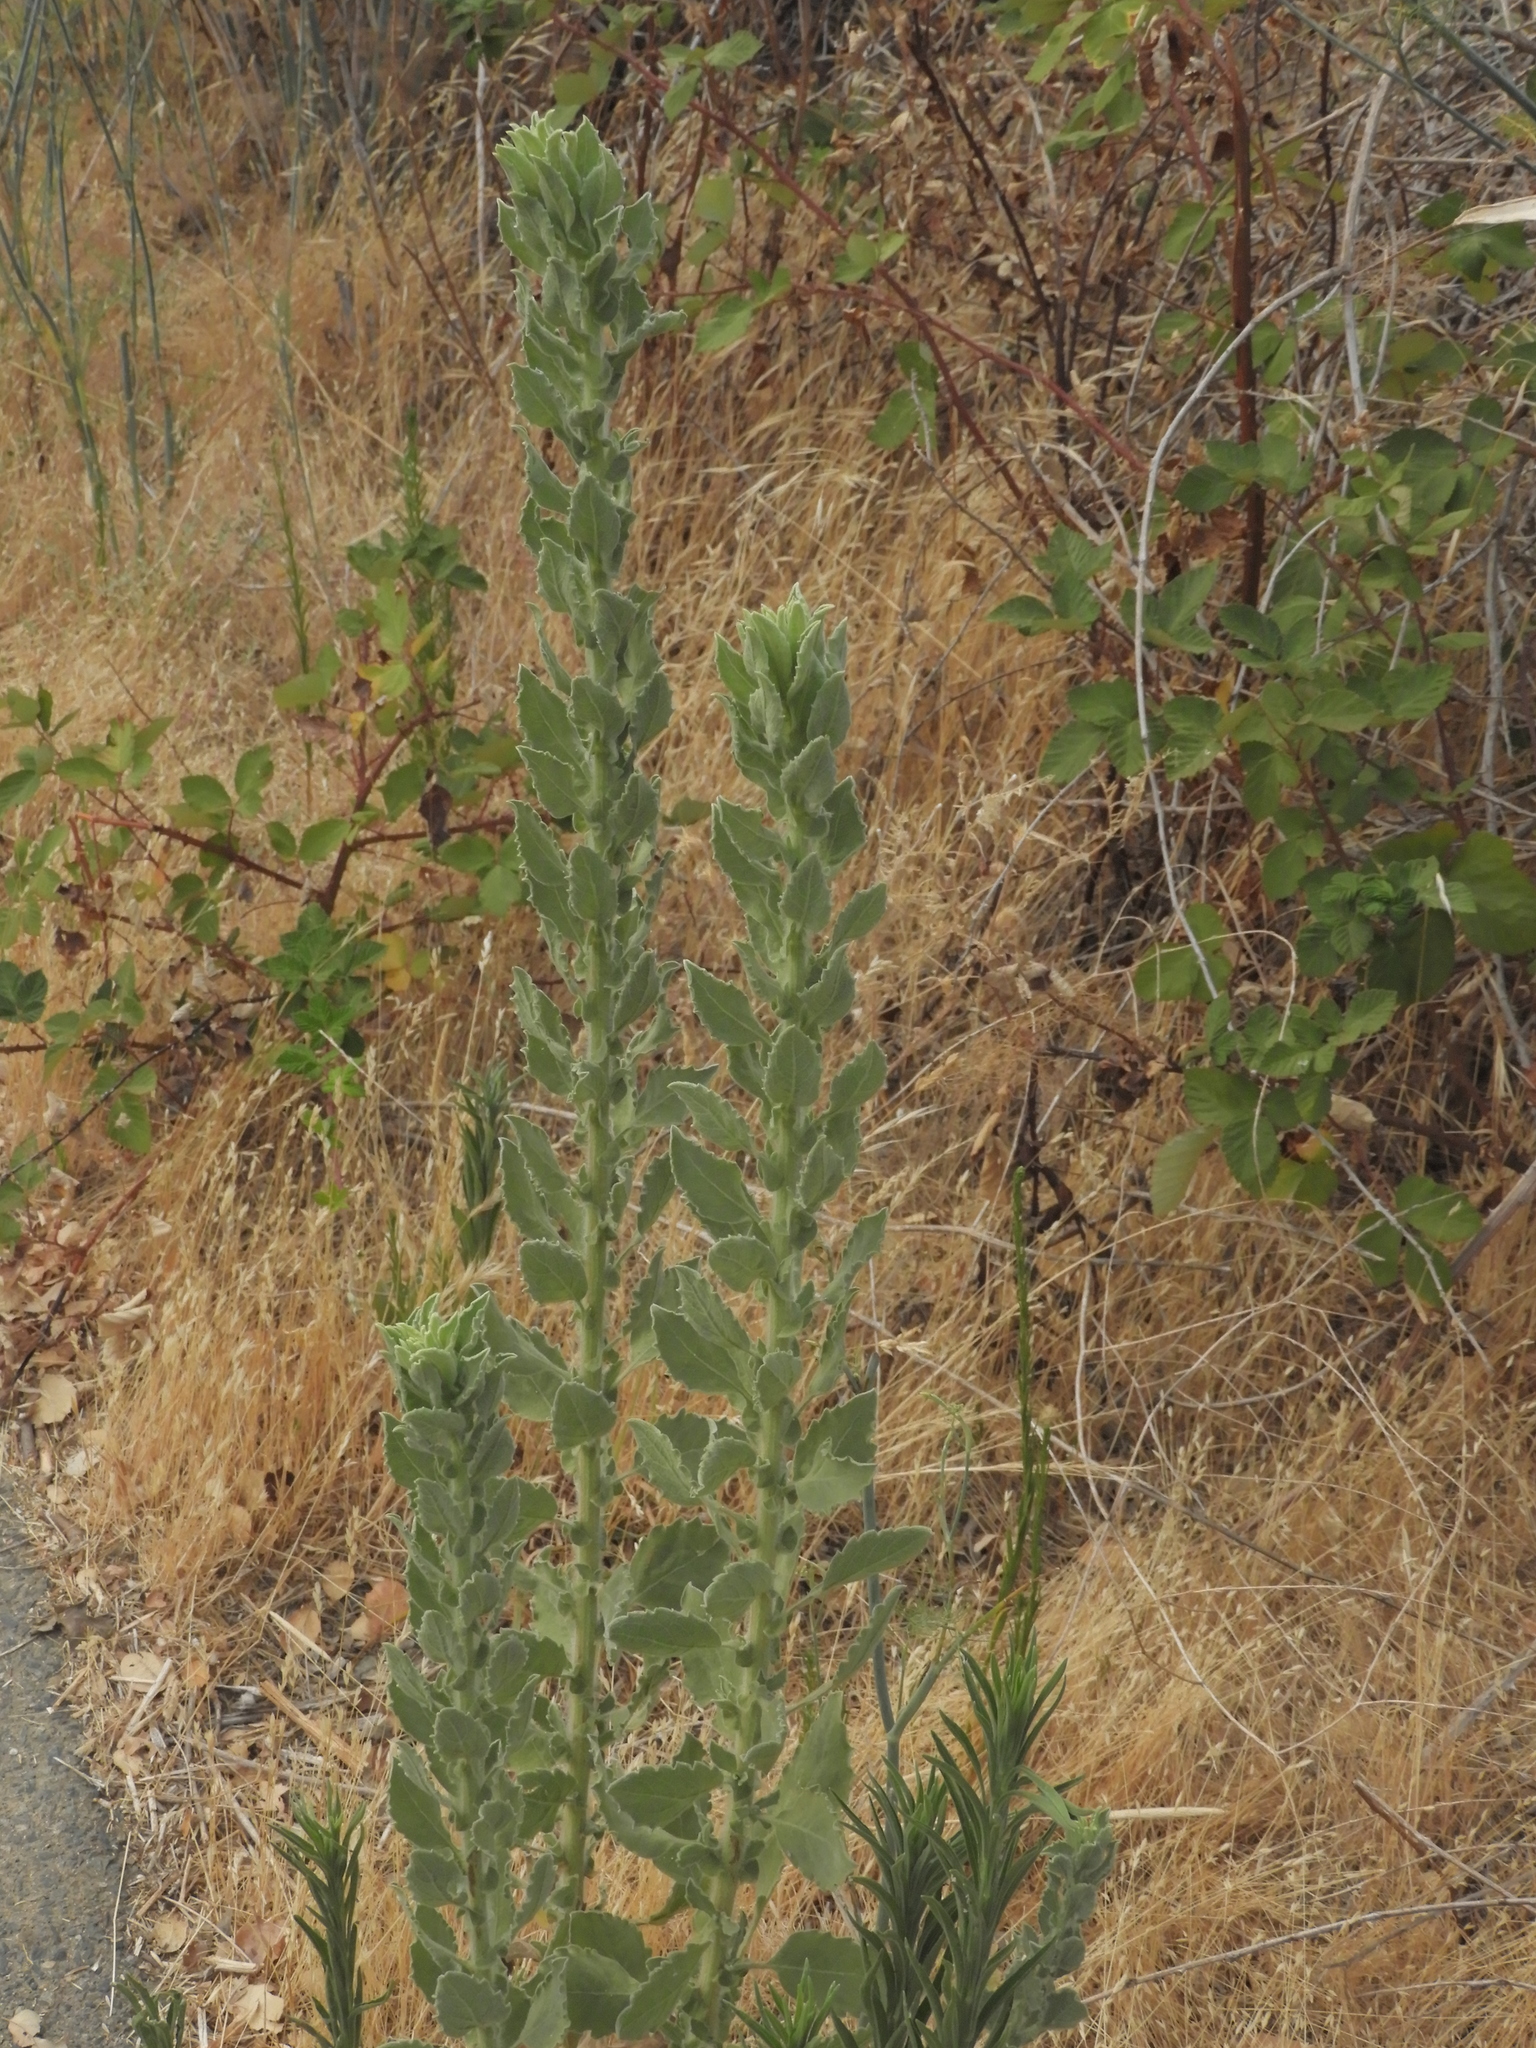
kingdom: Plantae
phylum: Tracheophyta
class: Magnoliopsida
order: Asterales
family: Asteraceae
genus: Heterotheca
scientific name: Heterotheca grandiflora
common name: Telegraphweed
